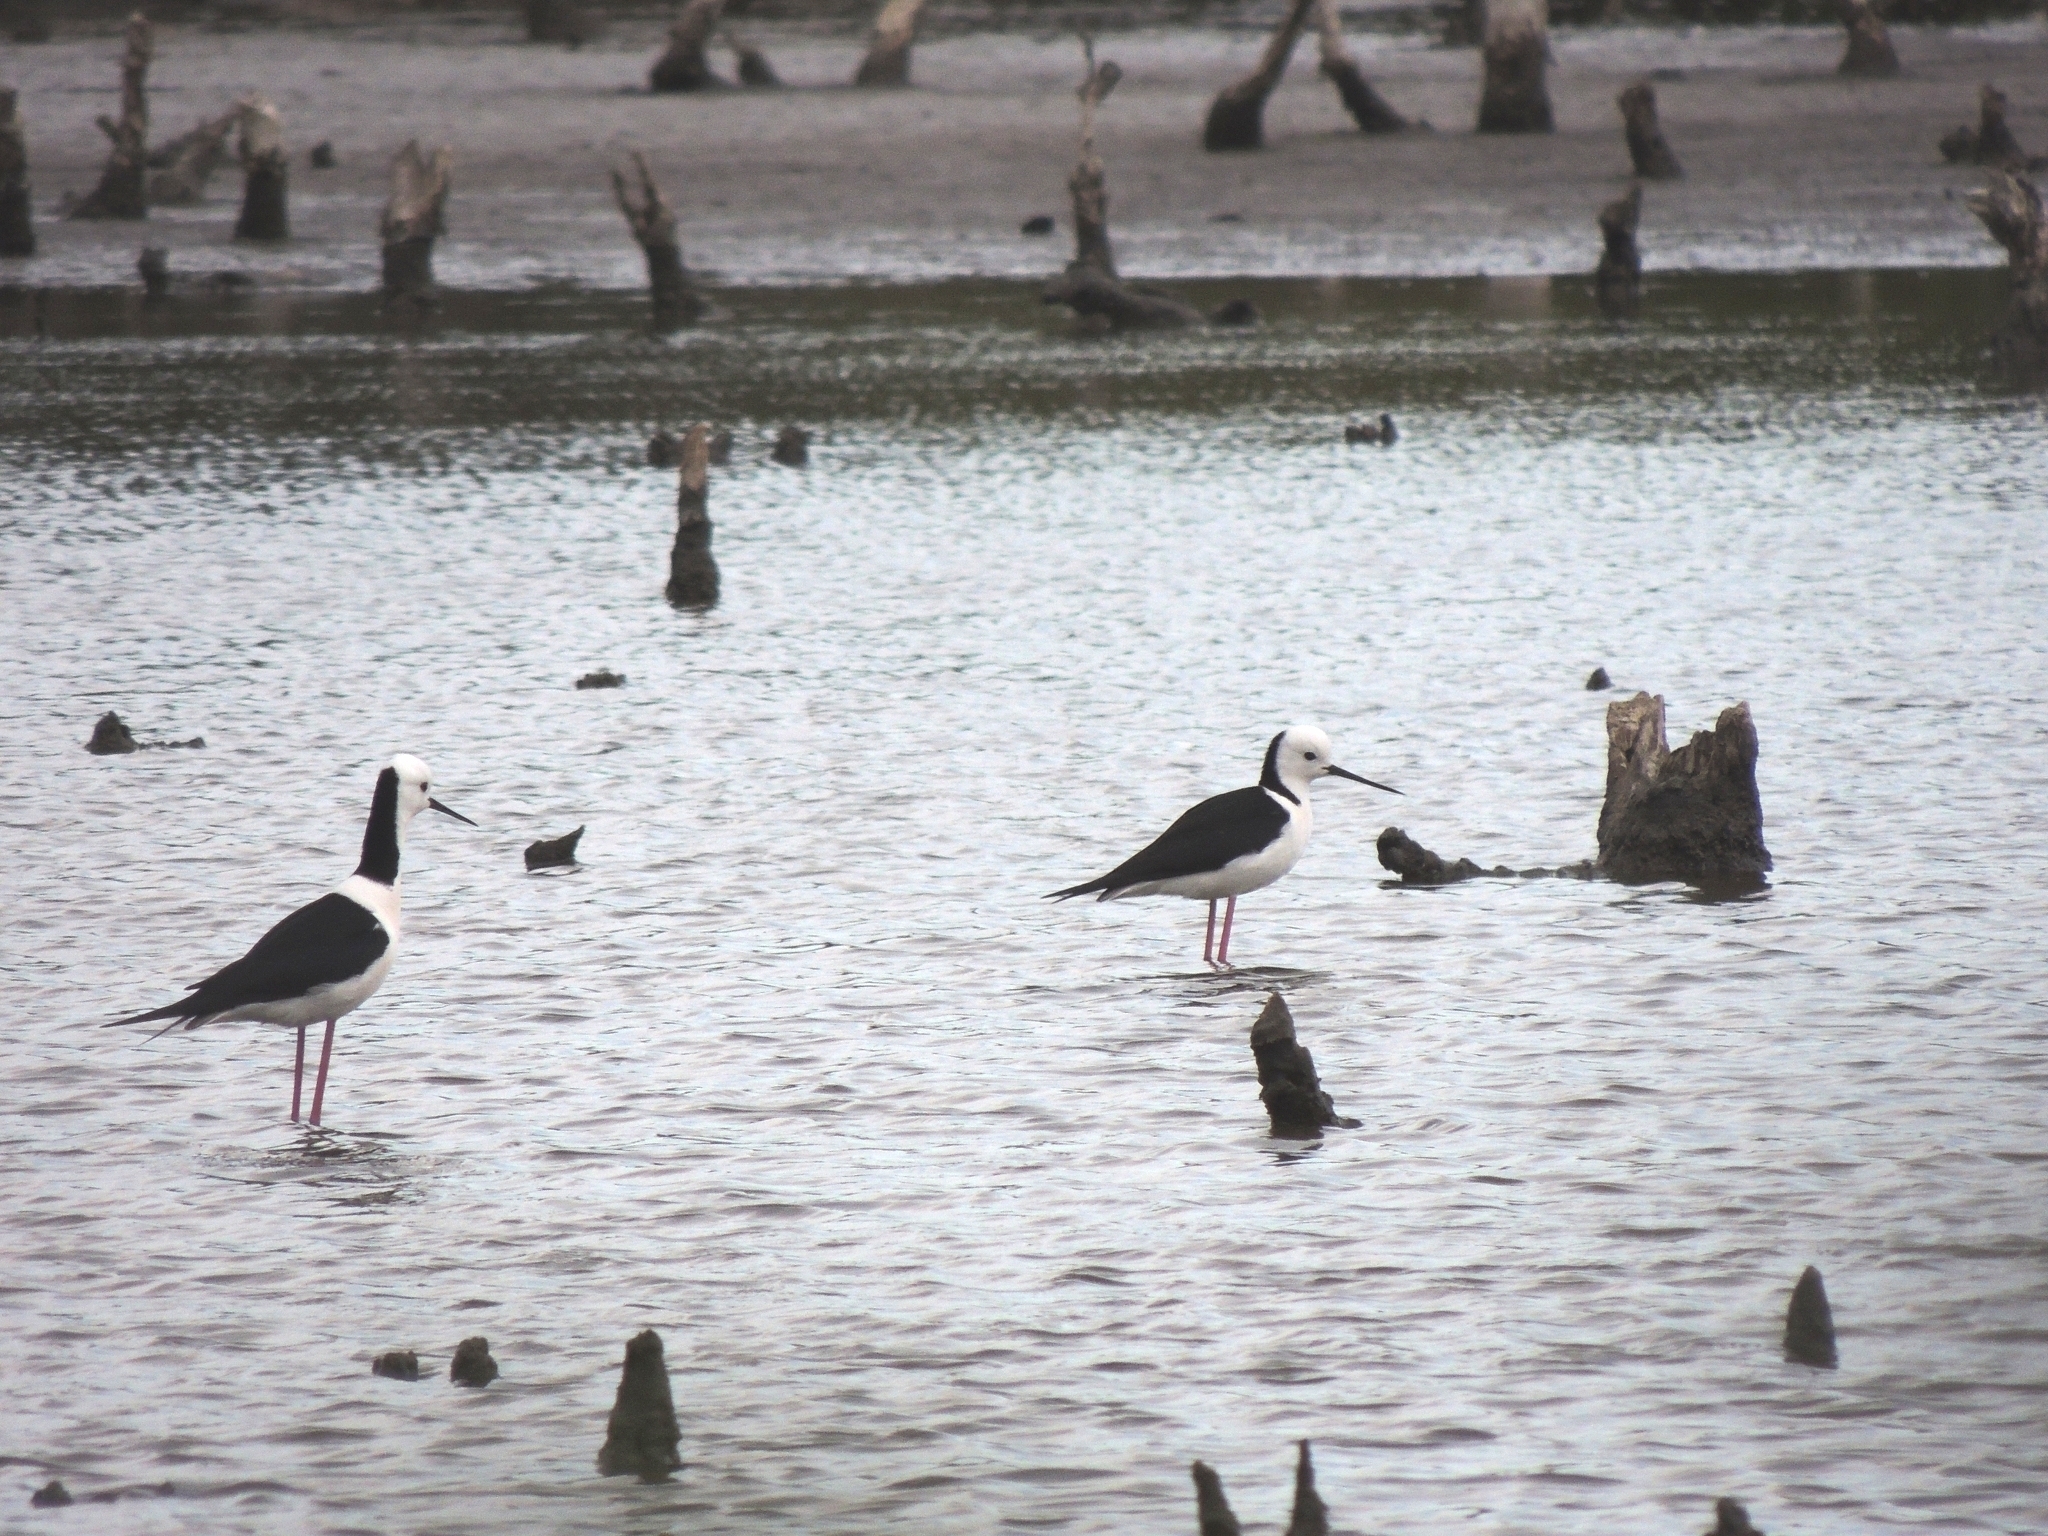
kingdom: Animalia
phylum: Chordata
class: Aves
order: Charadriiformes
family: Recurvirostridae
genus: Himantopus
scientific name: Himantopus leucocephalus
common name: White-headed stilt
